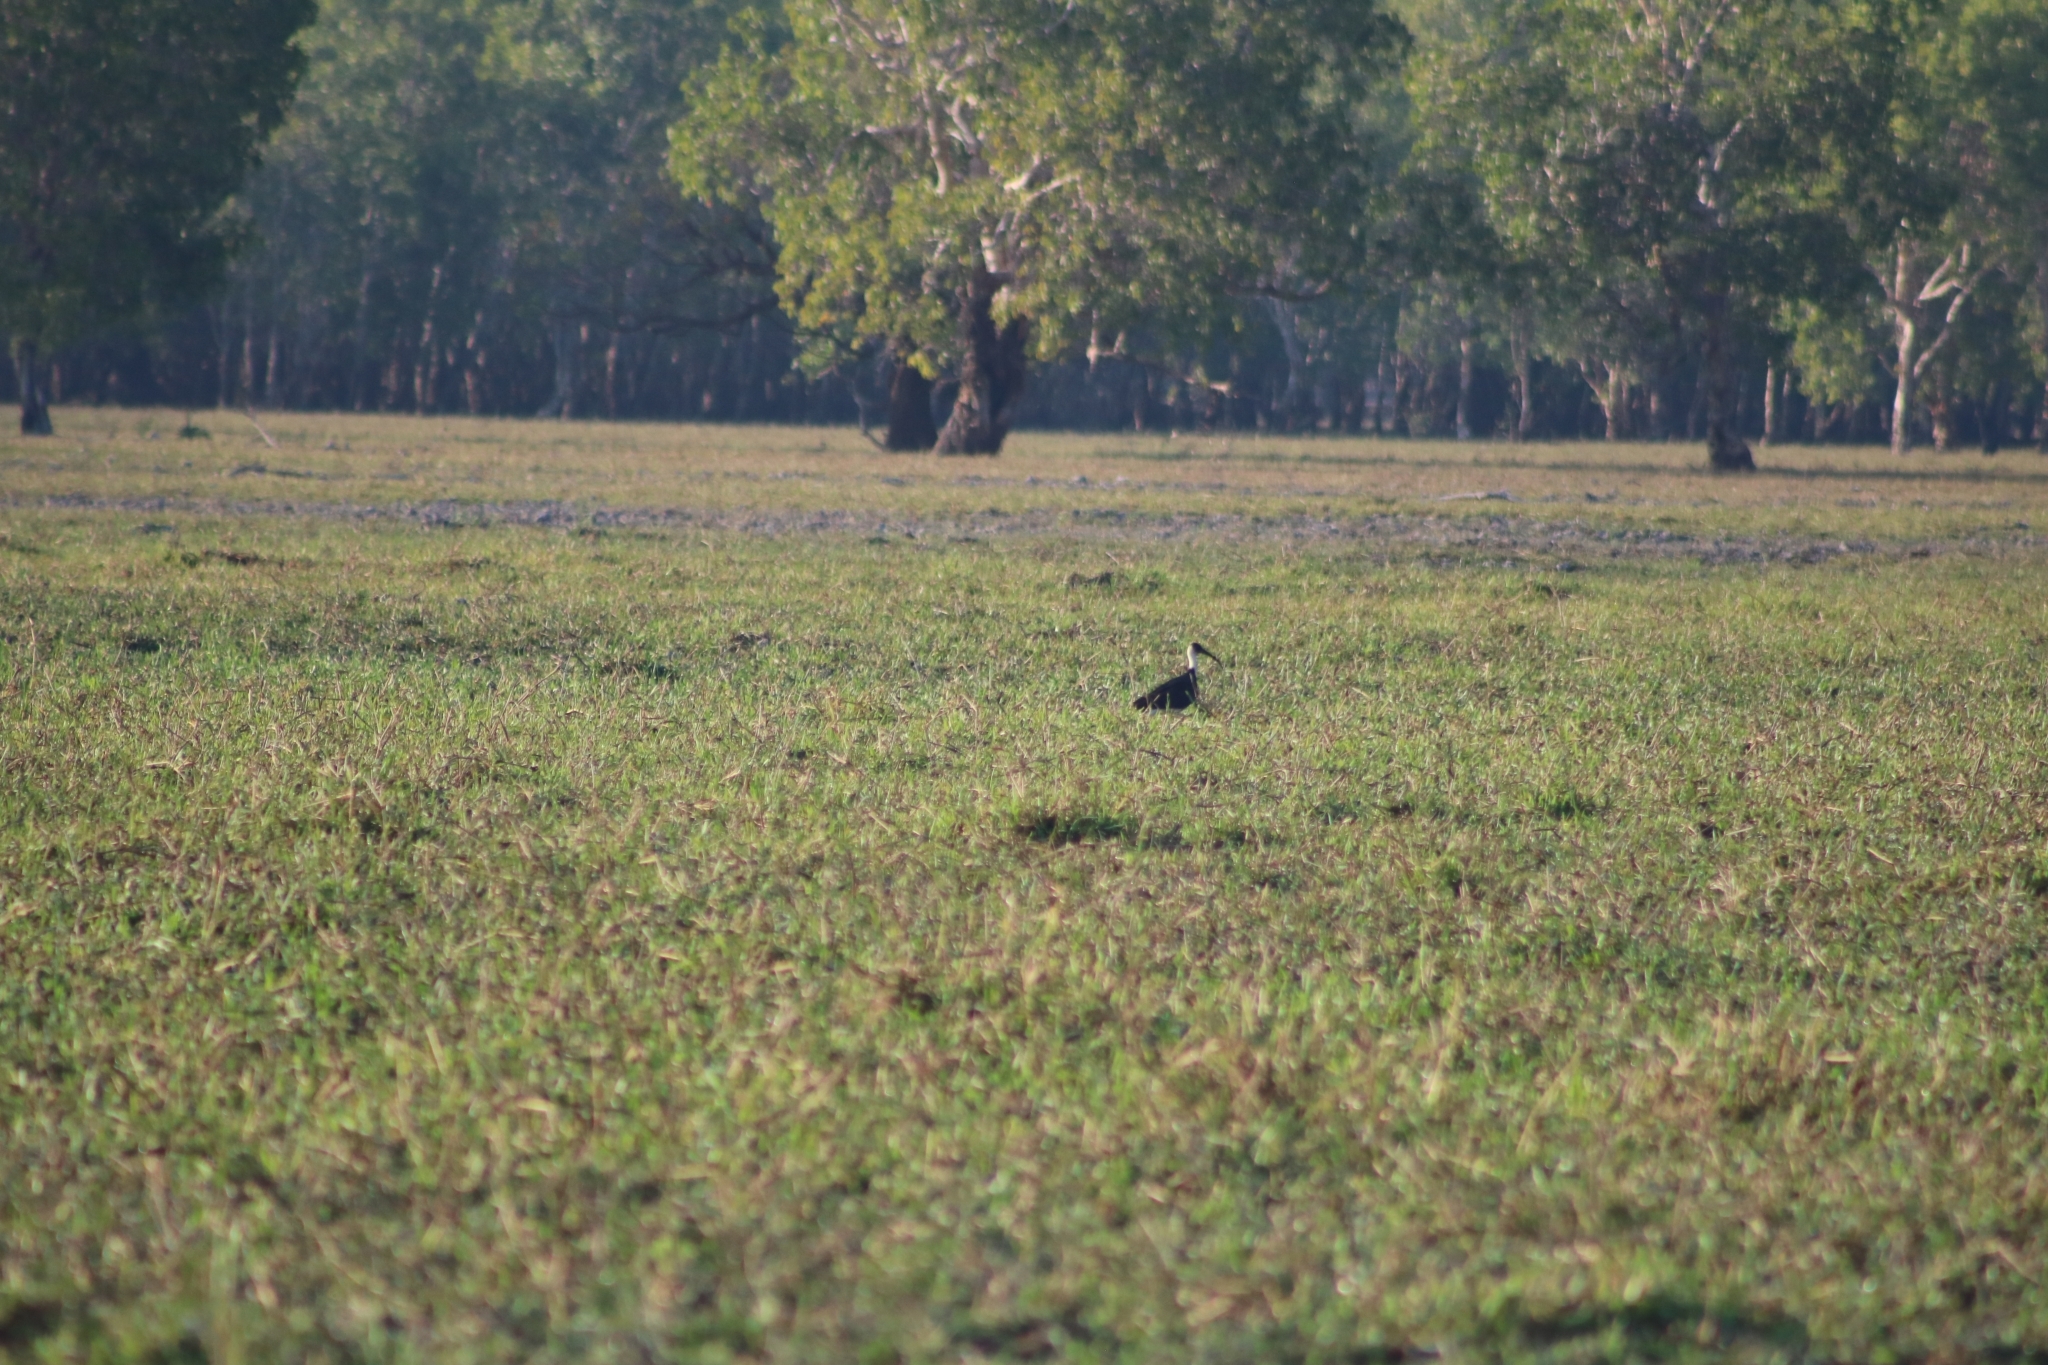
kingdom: Animalia
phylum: Chordata
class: Aves
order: Pelecaniformes
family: Threskiornithidae
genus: Threskiornis
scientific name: Threskiornis spinicollis
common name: Straw-necked ibis
